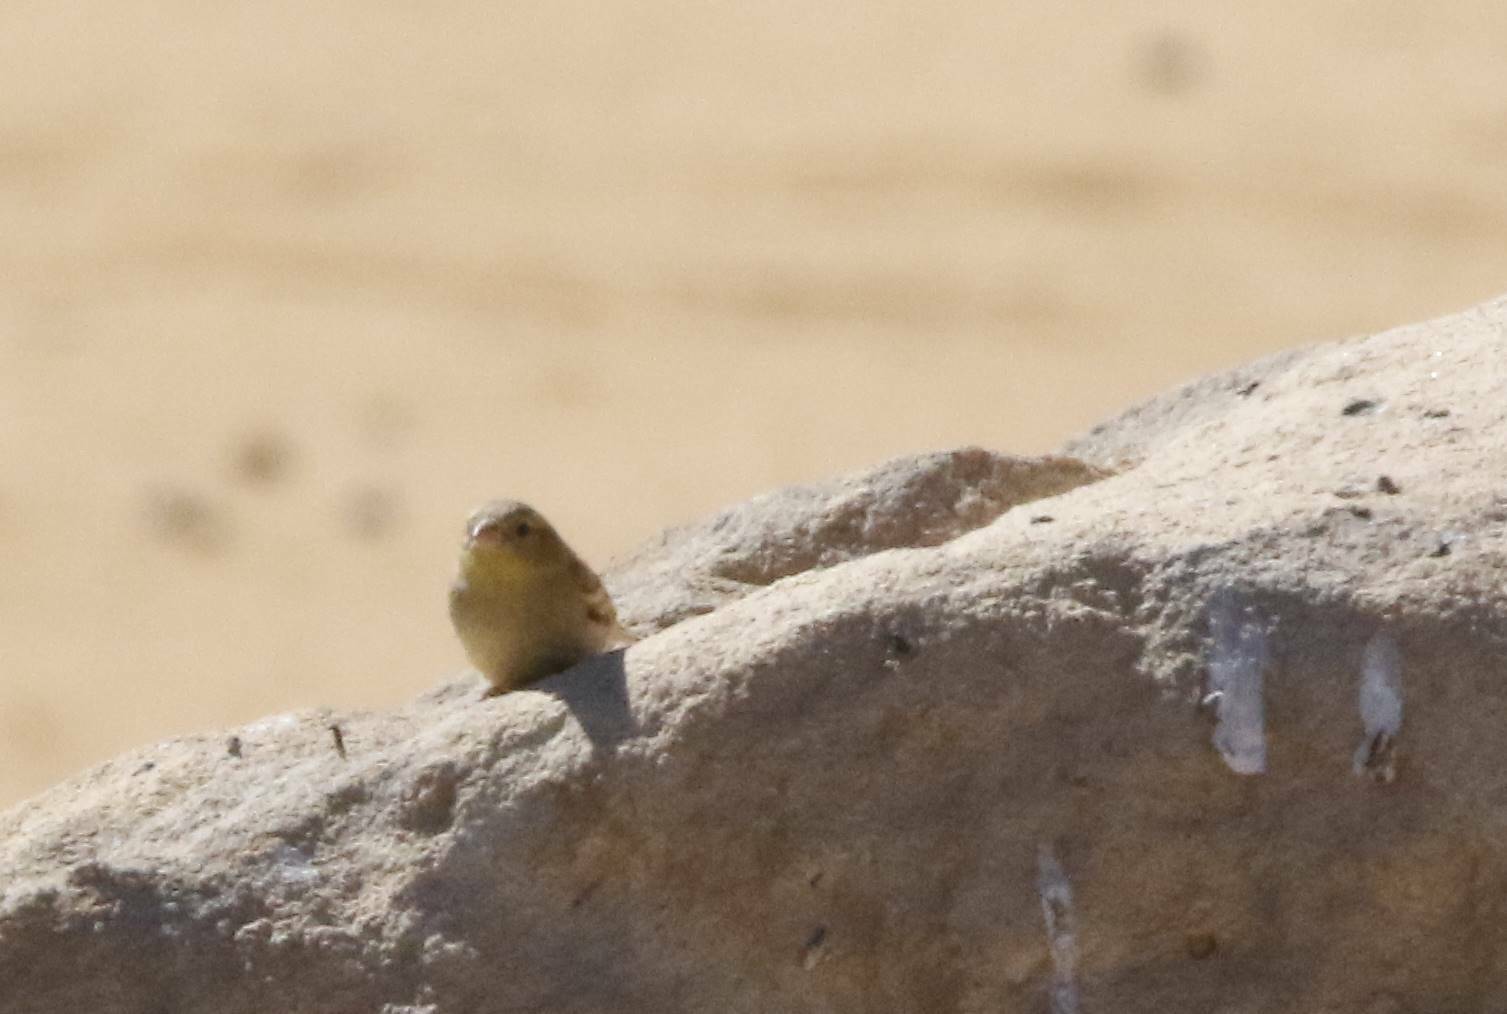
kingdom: Animalia
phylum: Chordata
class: Aves
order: Passeriformes
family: Passeridae
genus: Passer
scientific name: Passer luteus
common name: Sudan golden sparrow
